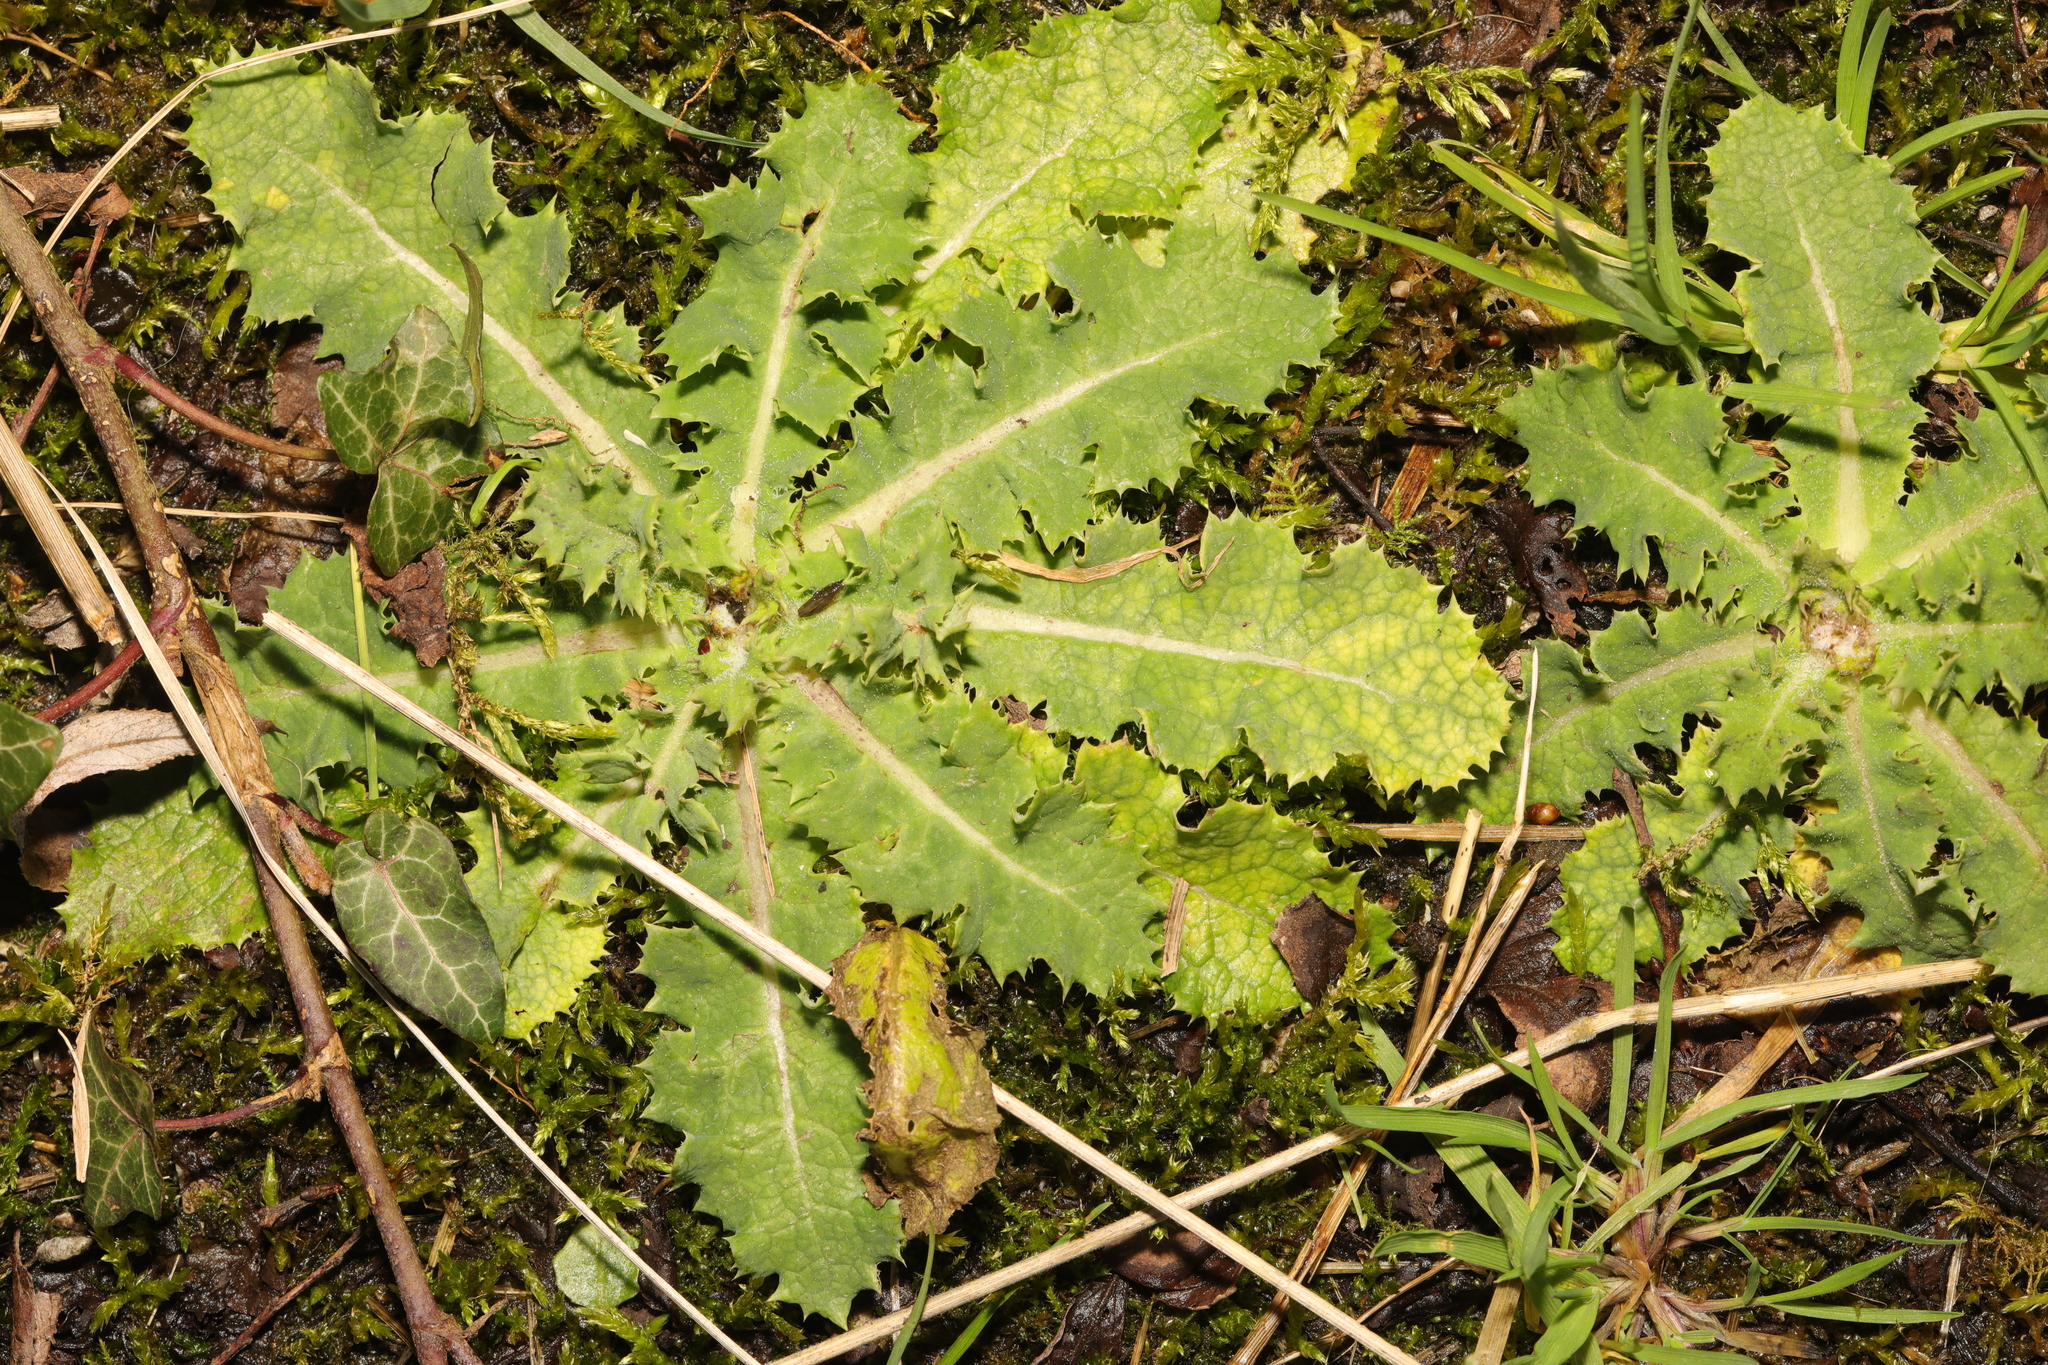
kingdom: Plantae
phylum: Tracheophyta
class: Magnoliopsida
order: Asterales
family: Asteraceae
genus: Sonchus
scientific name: Sonchus asper
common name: Prickly sow-thistle
